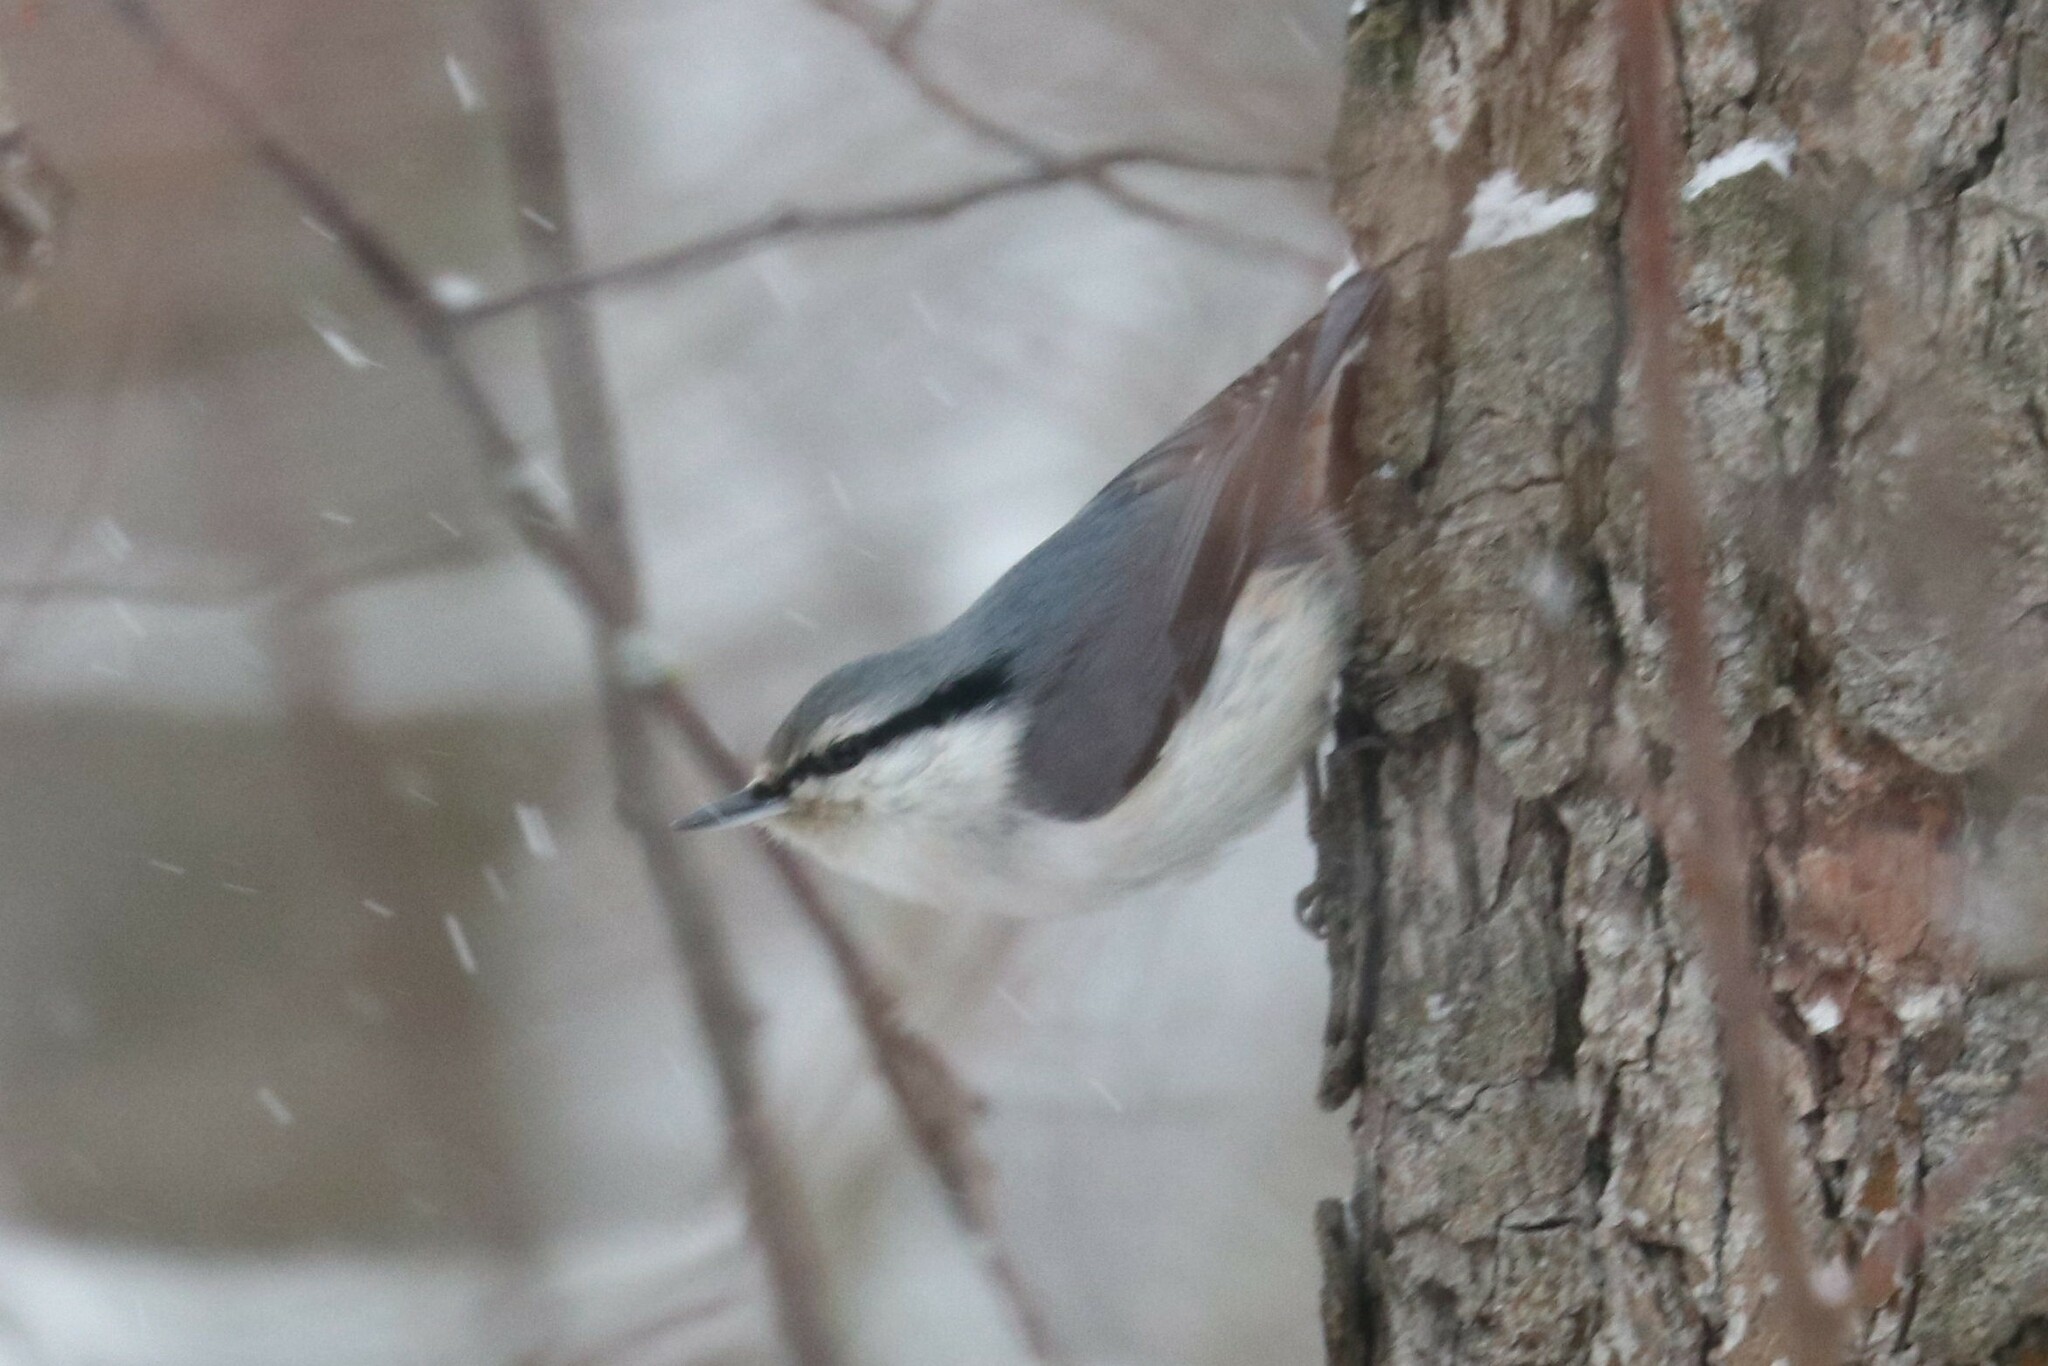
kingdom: Animalia
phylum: Chordata
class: Aves
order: Passeriformes
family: Sittidae
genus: Sitta
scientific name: Sitta europaea
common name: Eurasian nuthatch
